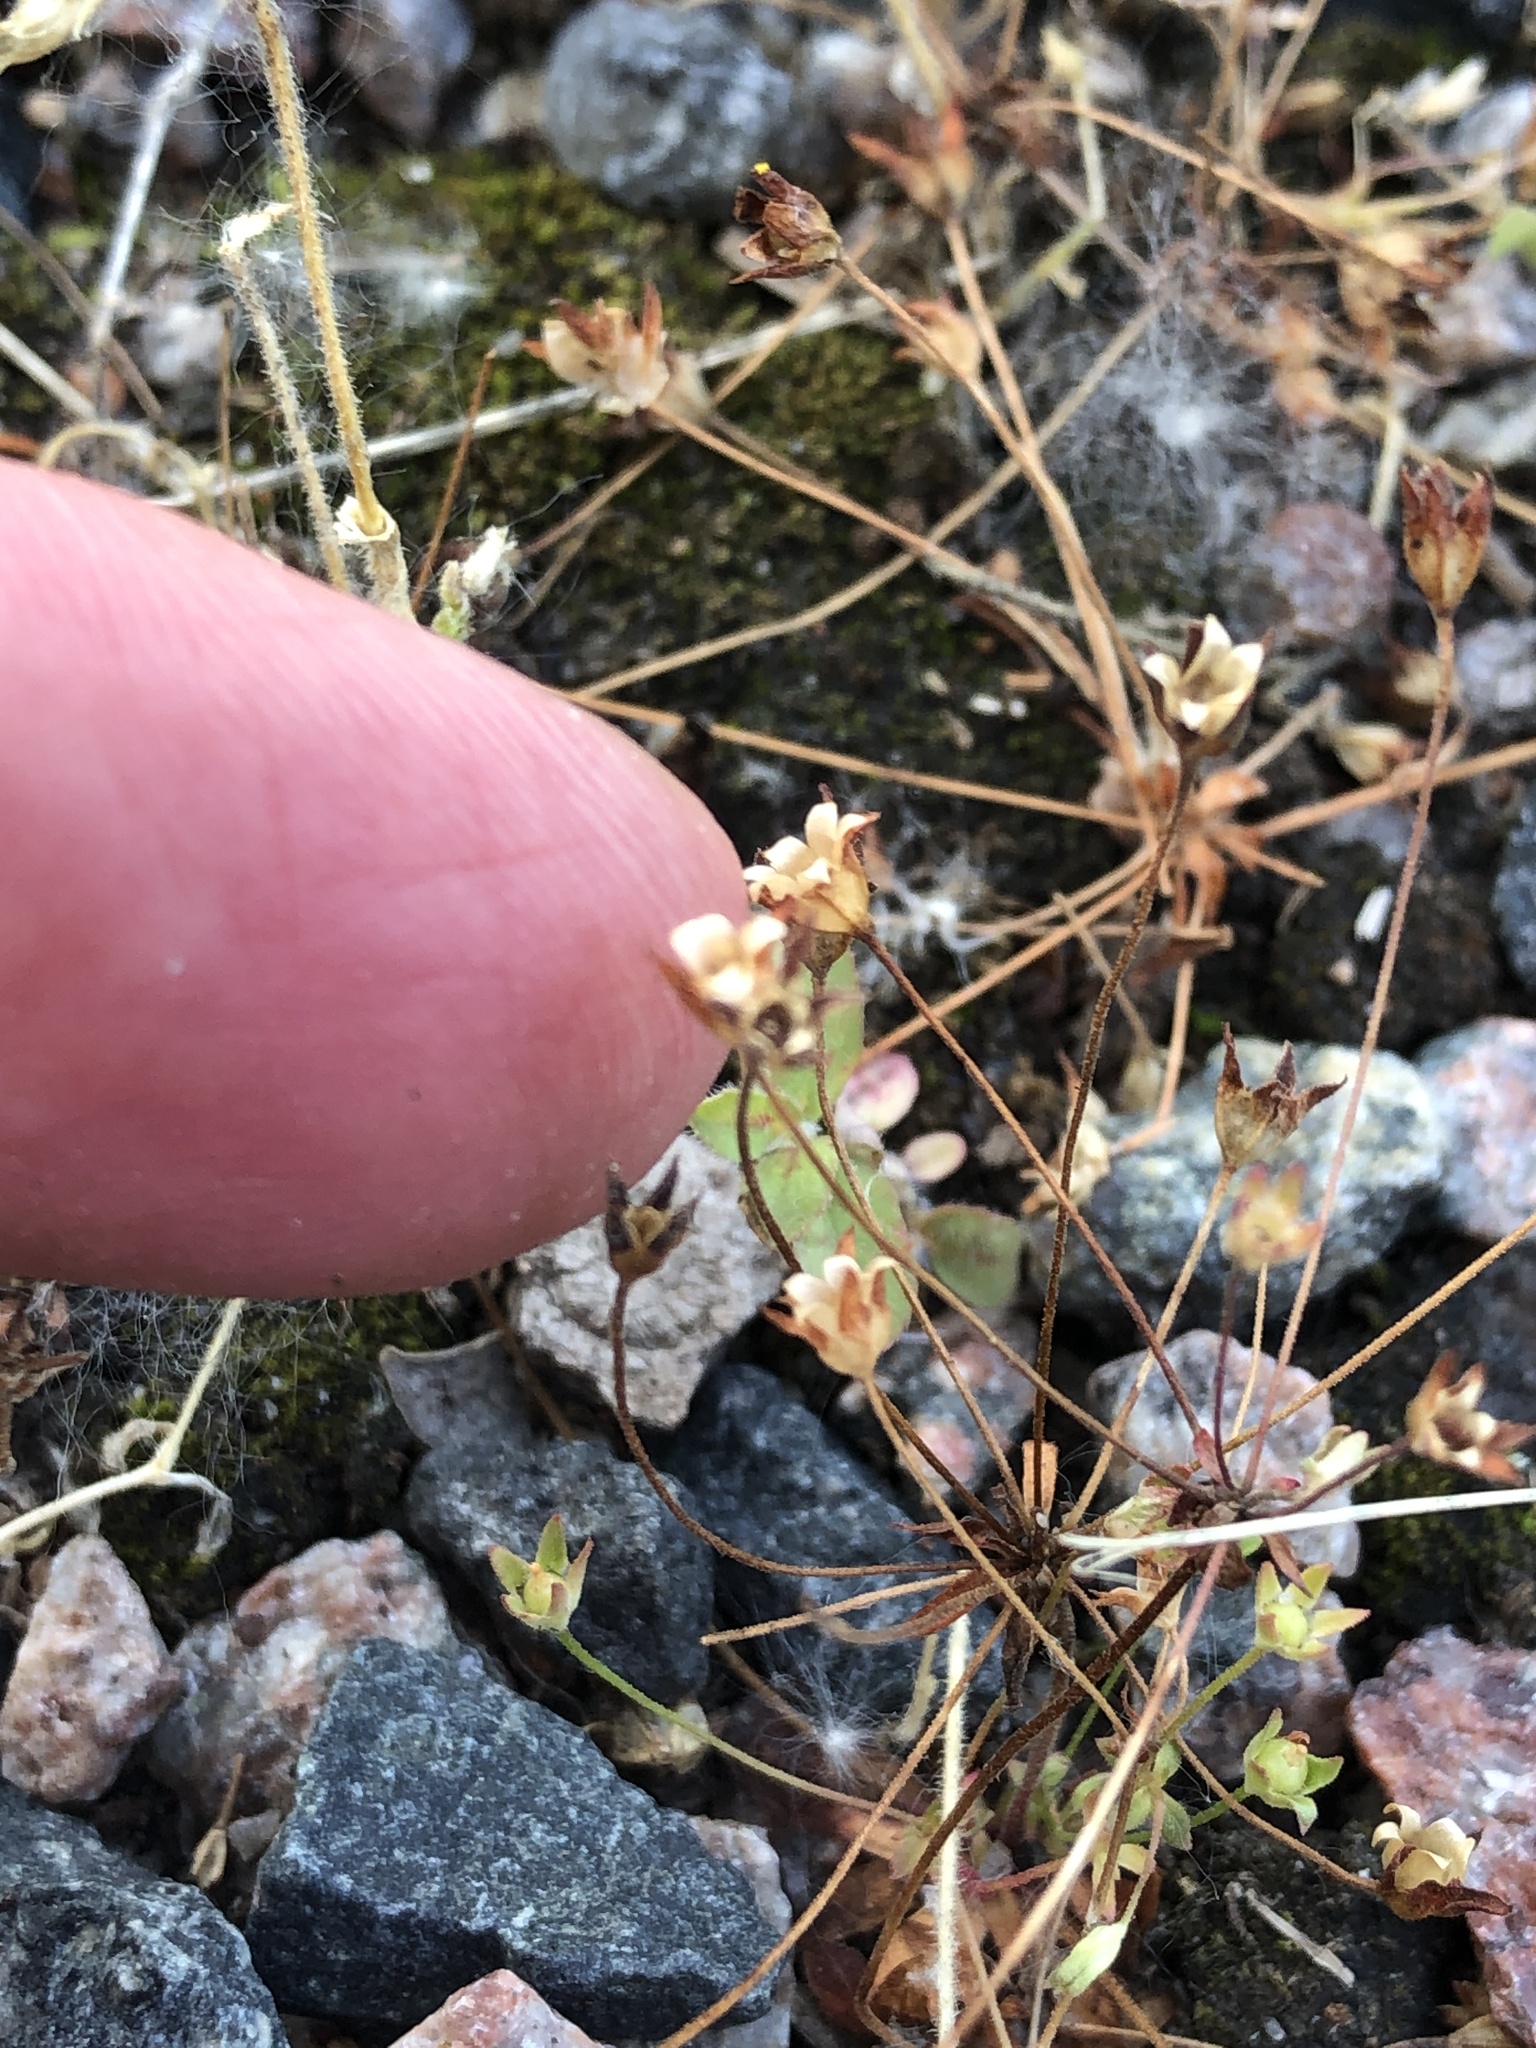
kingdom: Plantae
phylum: Tracheophyta
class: Magnoliopsida
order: Ericales
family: Primulaceae
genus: Androsace
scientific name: Androsace occidentalis
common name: West rock-jasmine
